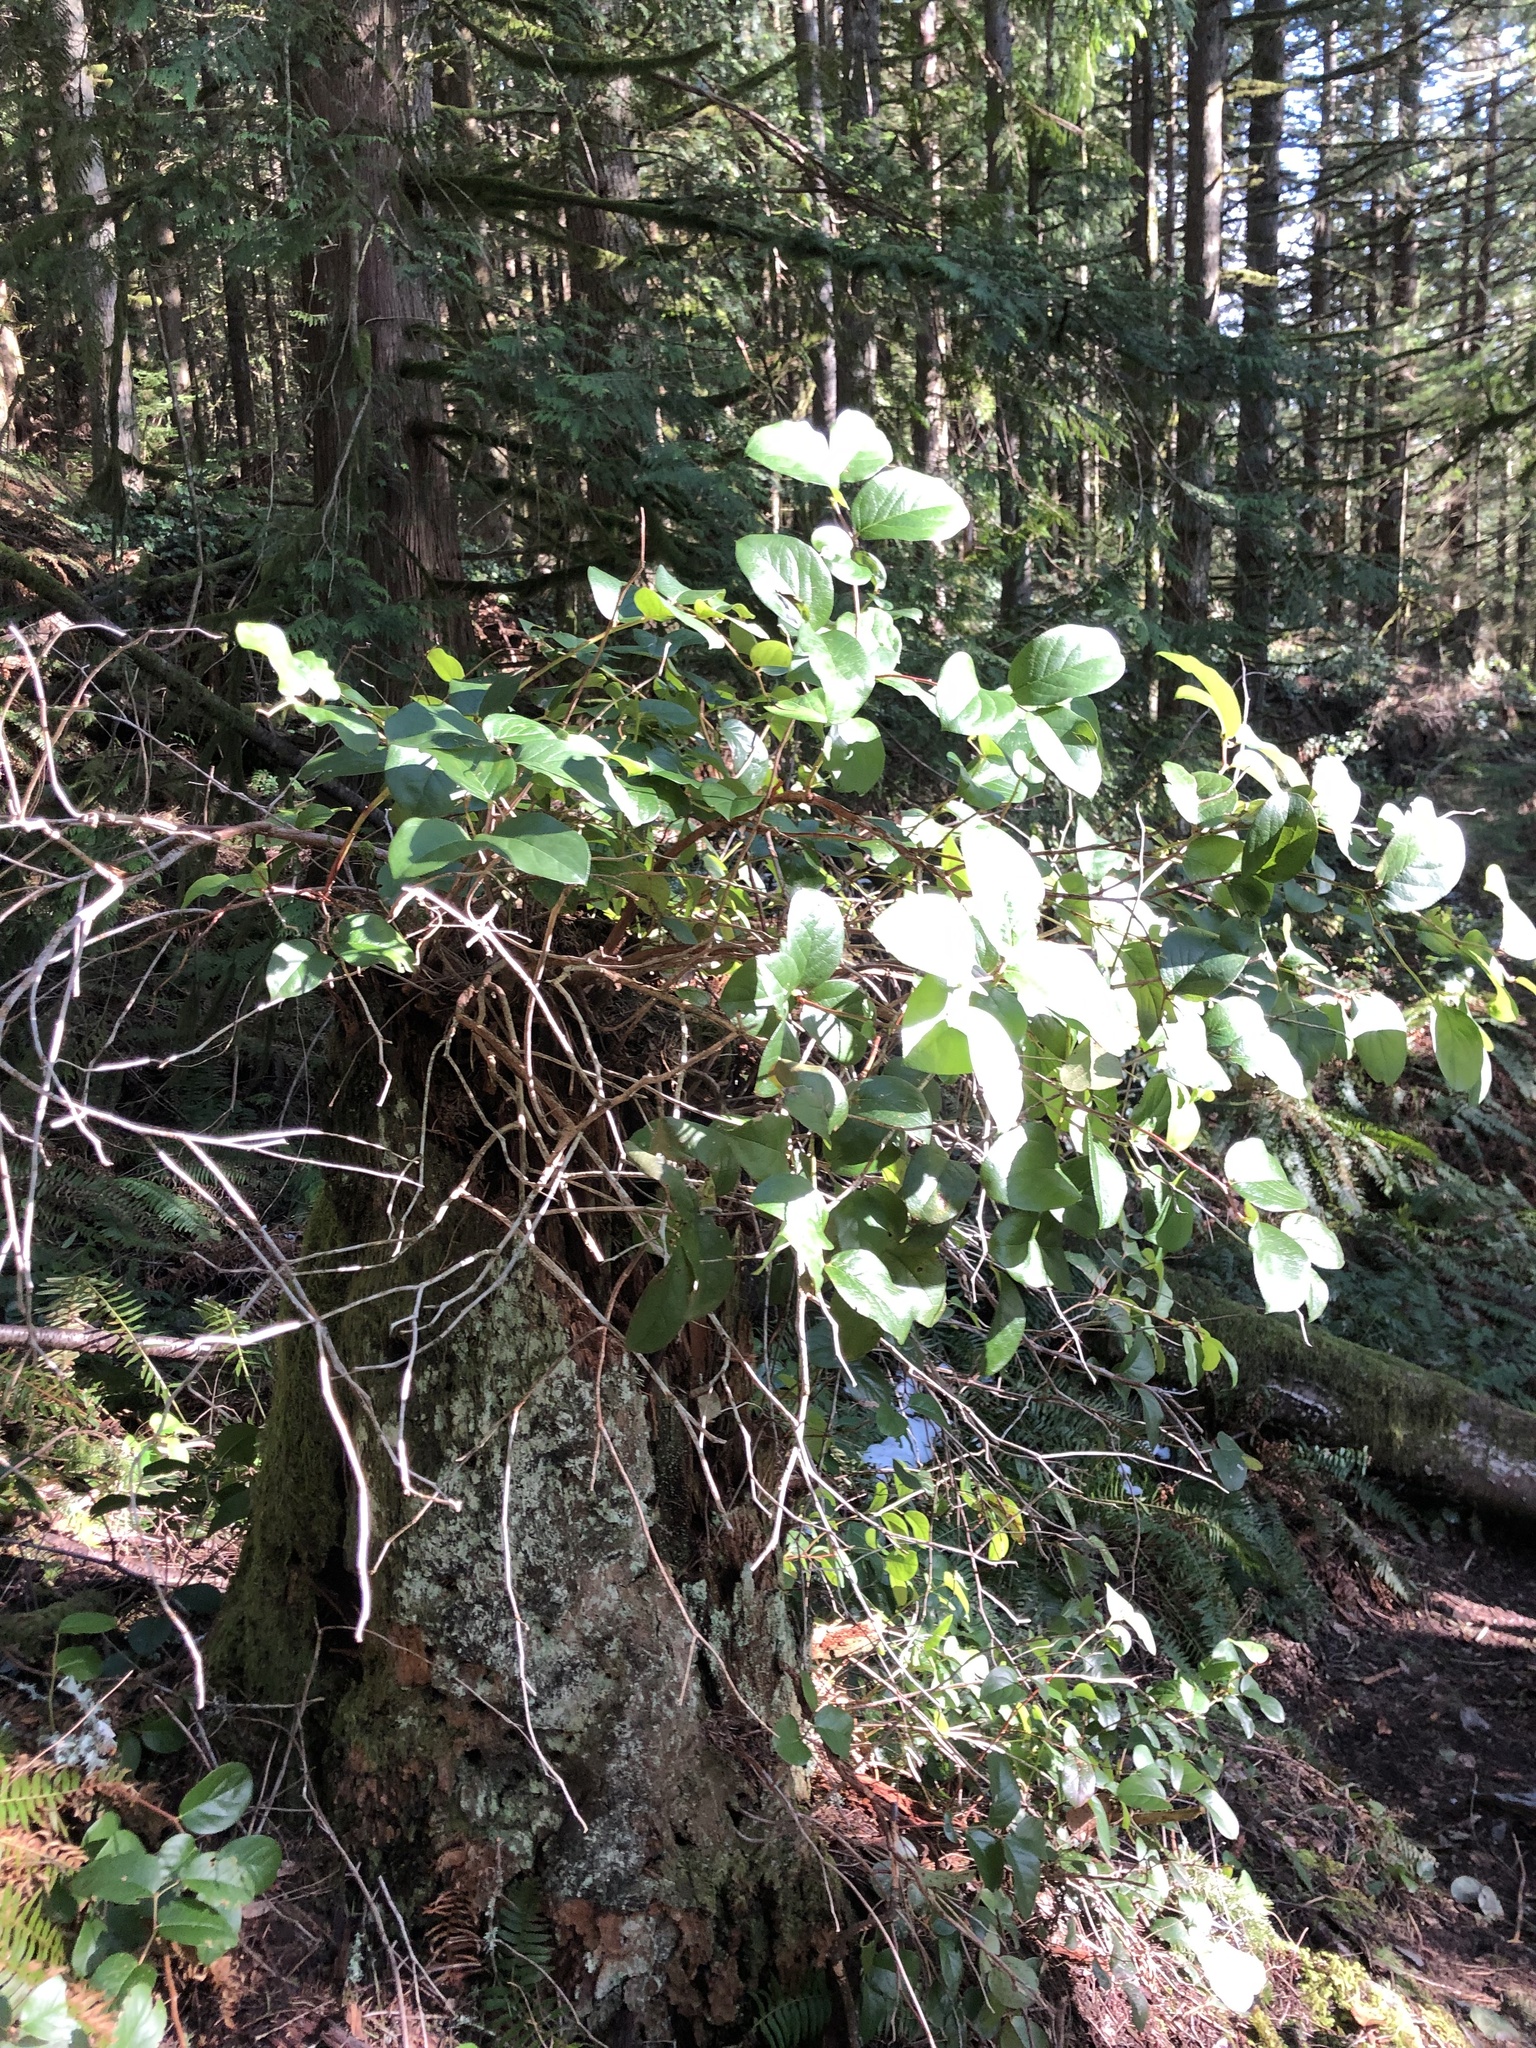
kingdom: Plantae
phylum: Tracheophyta
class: Magnoliopsida
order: Ericales
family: Ericaceae
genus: Gaultheria
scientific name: Gaultheria shallon
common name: Shallon
